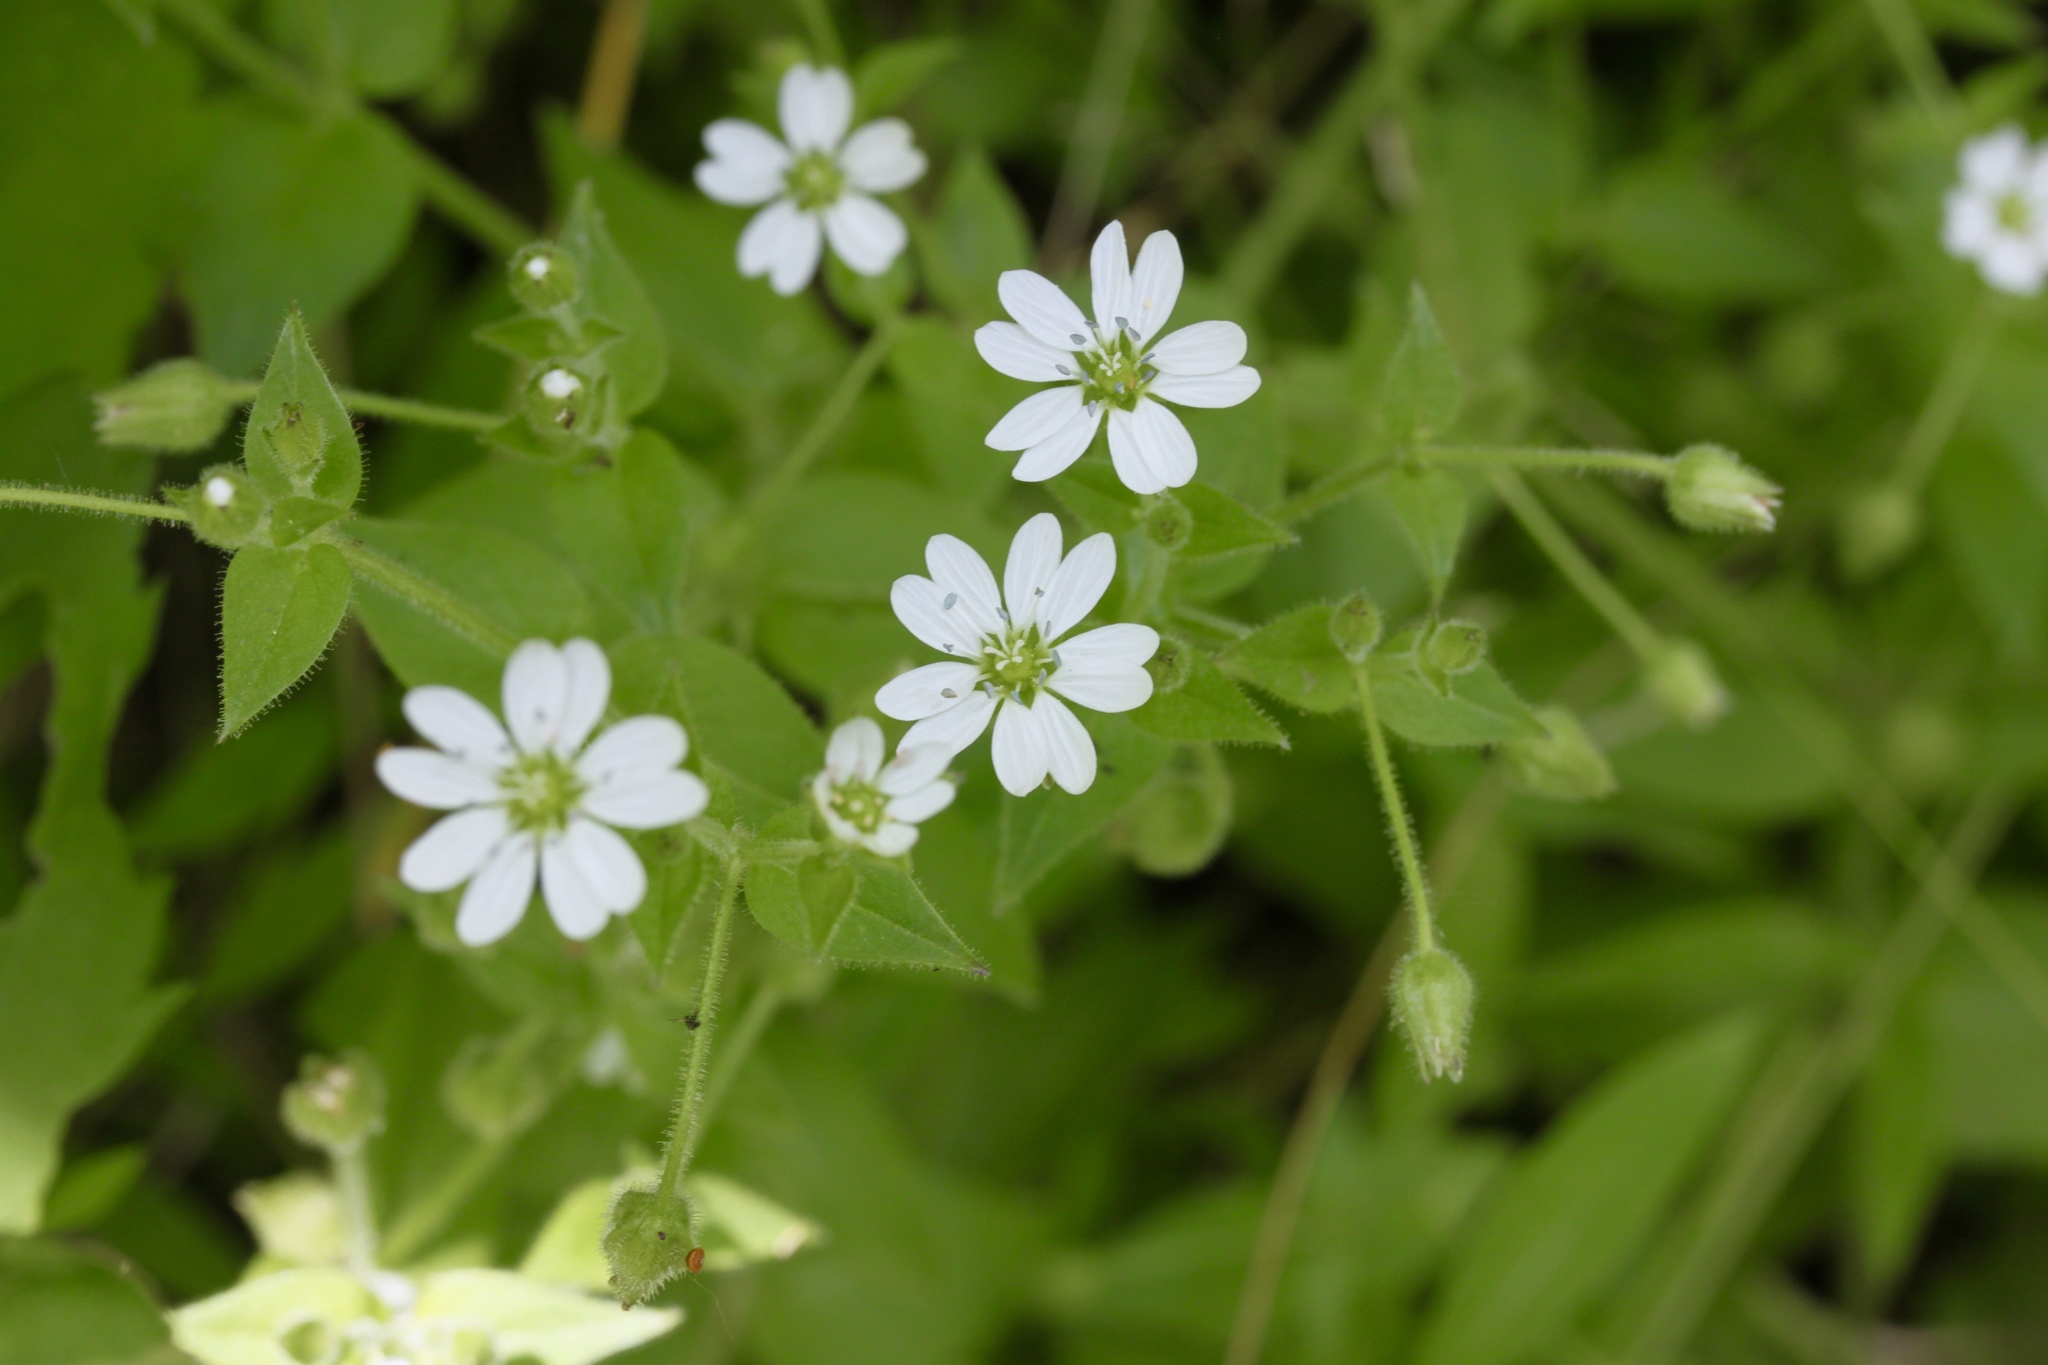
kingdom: Plantae
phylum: Tracheophyta
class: Magnoliopsida
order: Caryophyllales
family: Caryophyllaceae
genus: Stellaria
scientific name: Stellaria pubera
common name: Star chickweed
